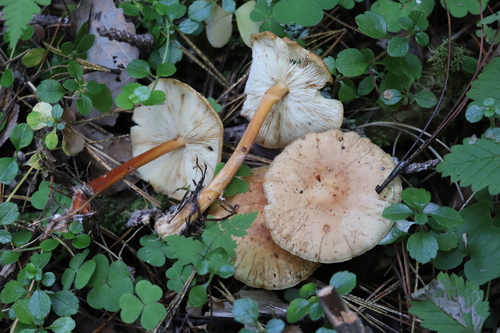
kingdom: Fungi
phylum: Basidiomycota
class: Agaricomycetes
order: Agaricales
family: Omphalotaceae
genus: Gymnopus
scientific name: Gymnopus dryophilus
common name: Penny top
